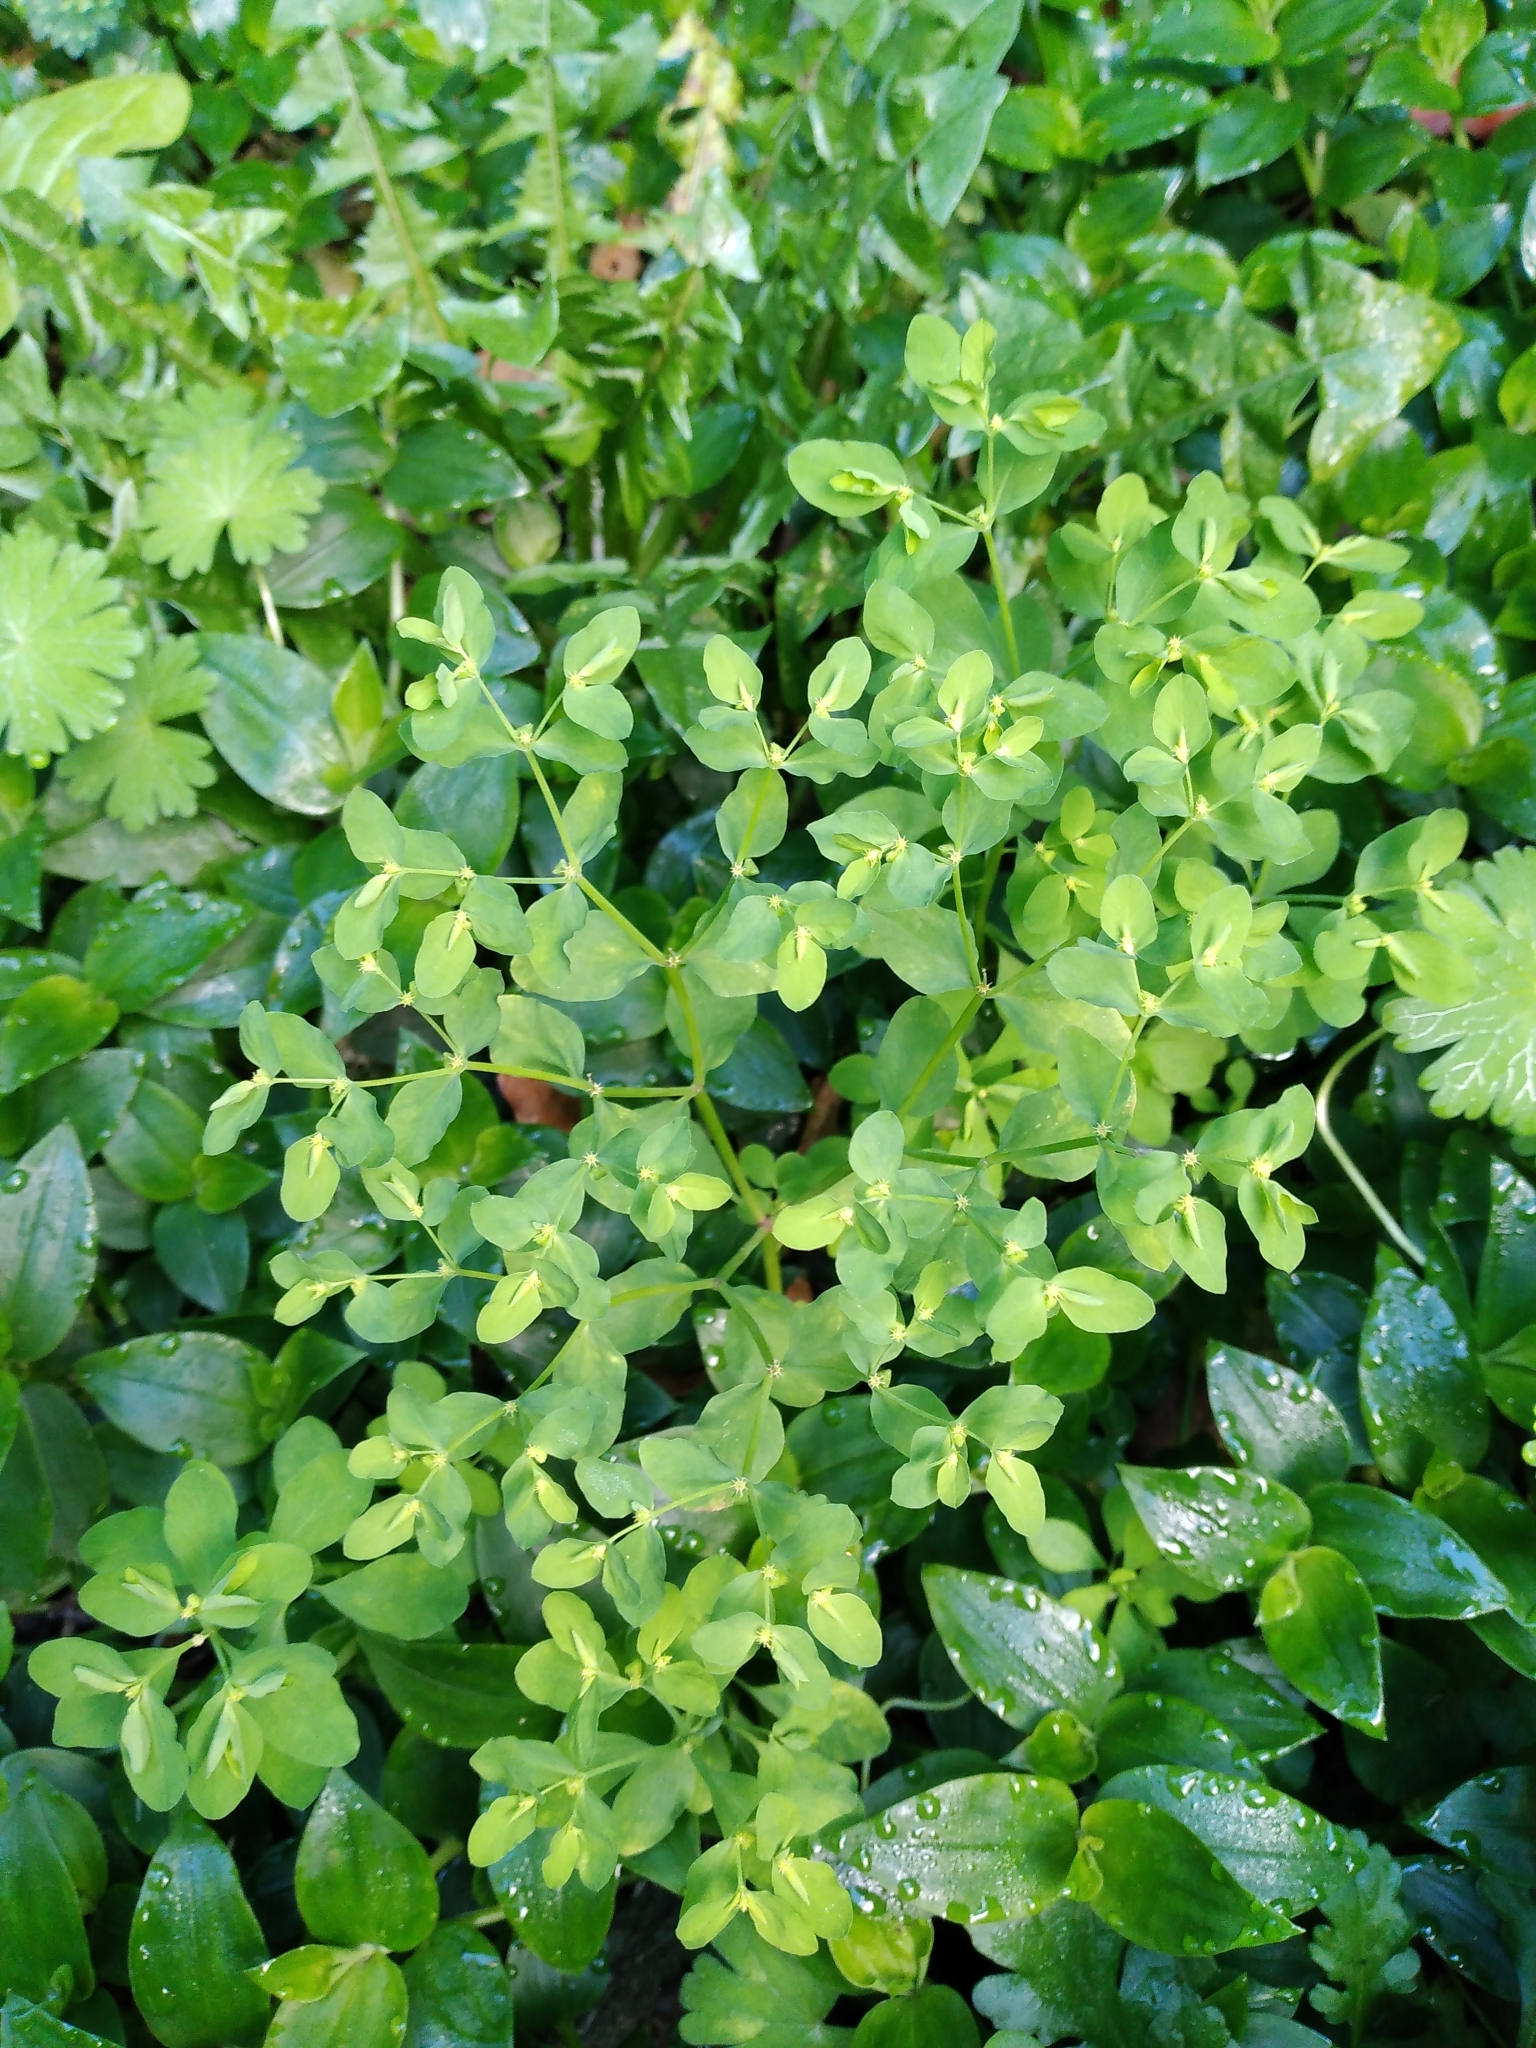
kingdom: Plantae
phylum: Tracheophyta
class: Magnoliopsida
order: Malpighiales
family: Euphorbiaceae
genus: Euphorbia
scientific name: Euphorbia peplus
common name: Petty spurge
